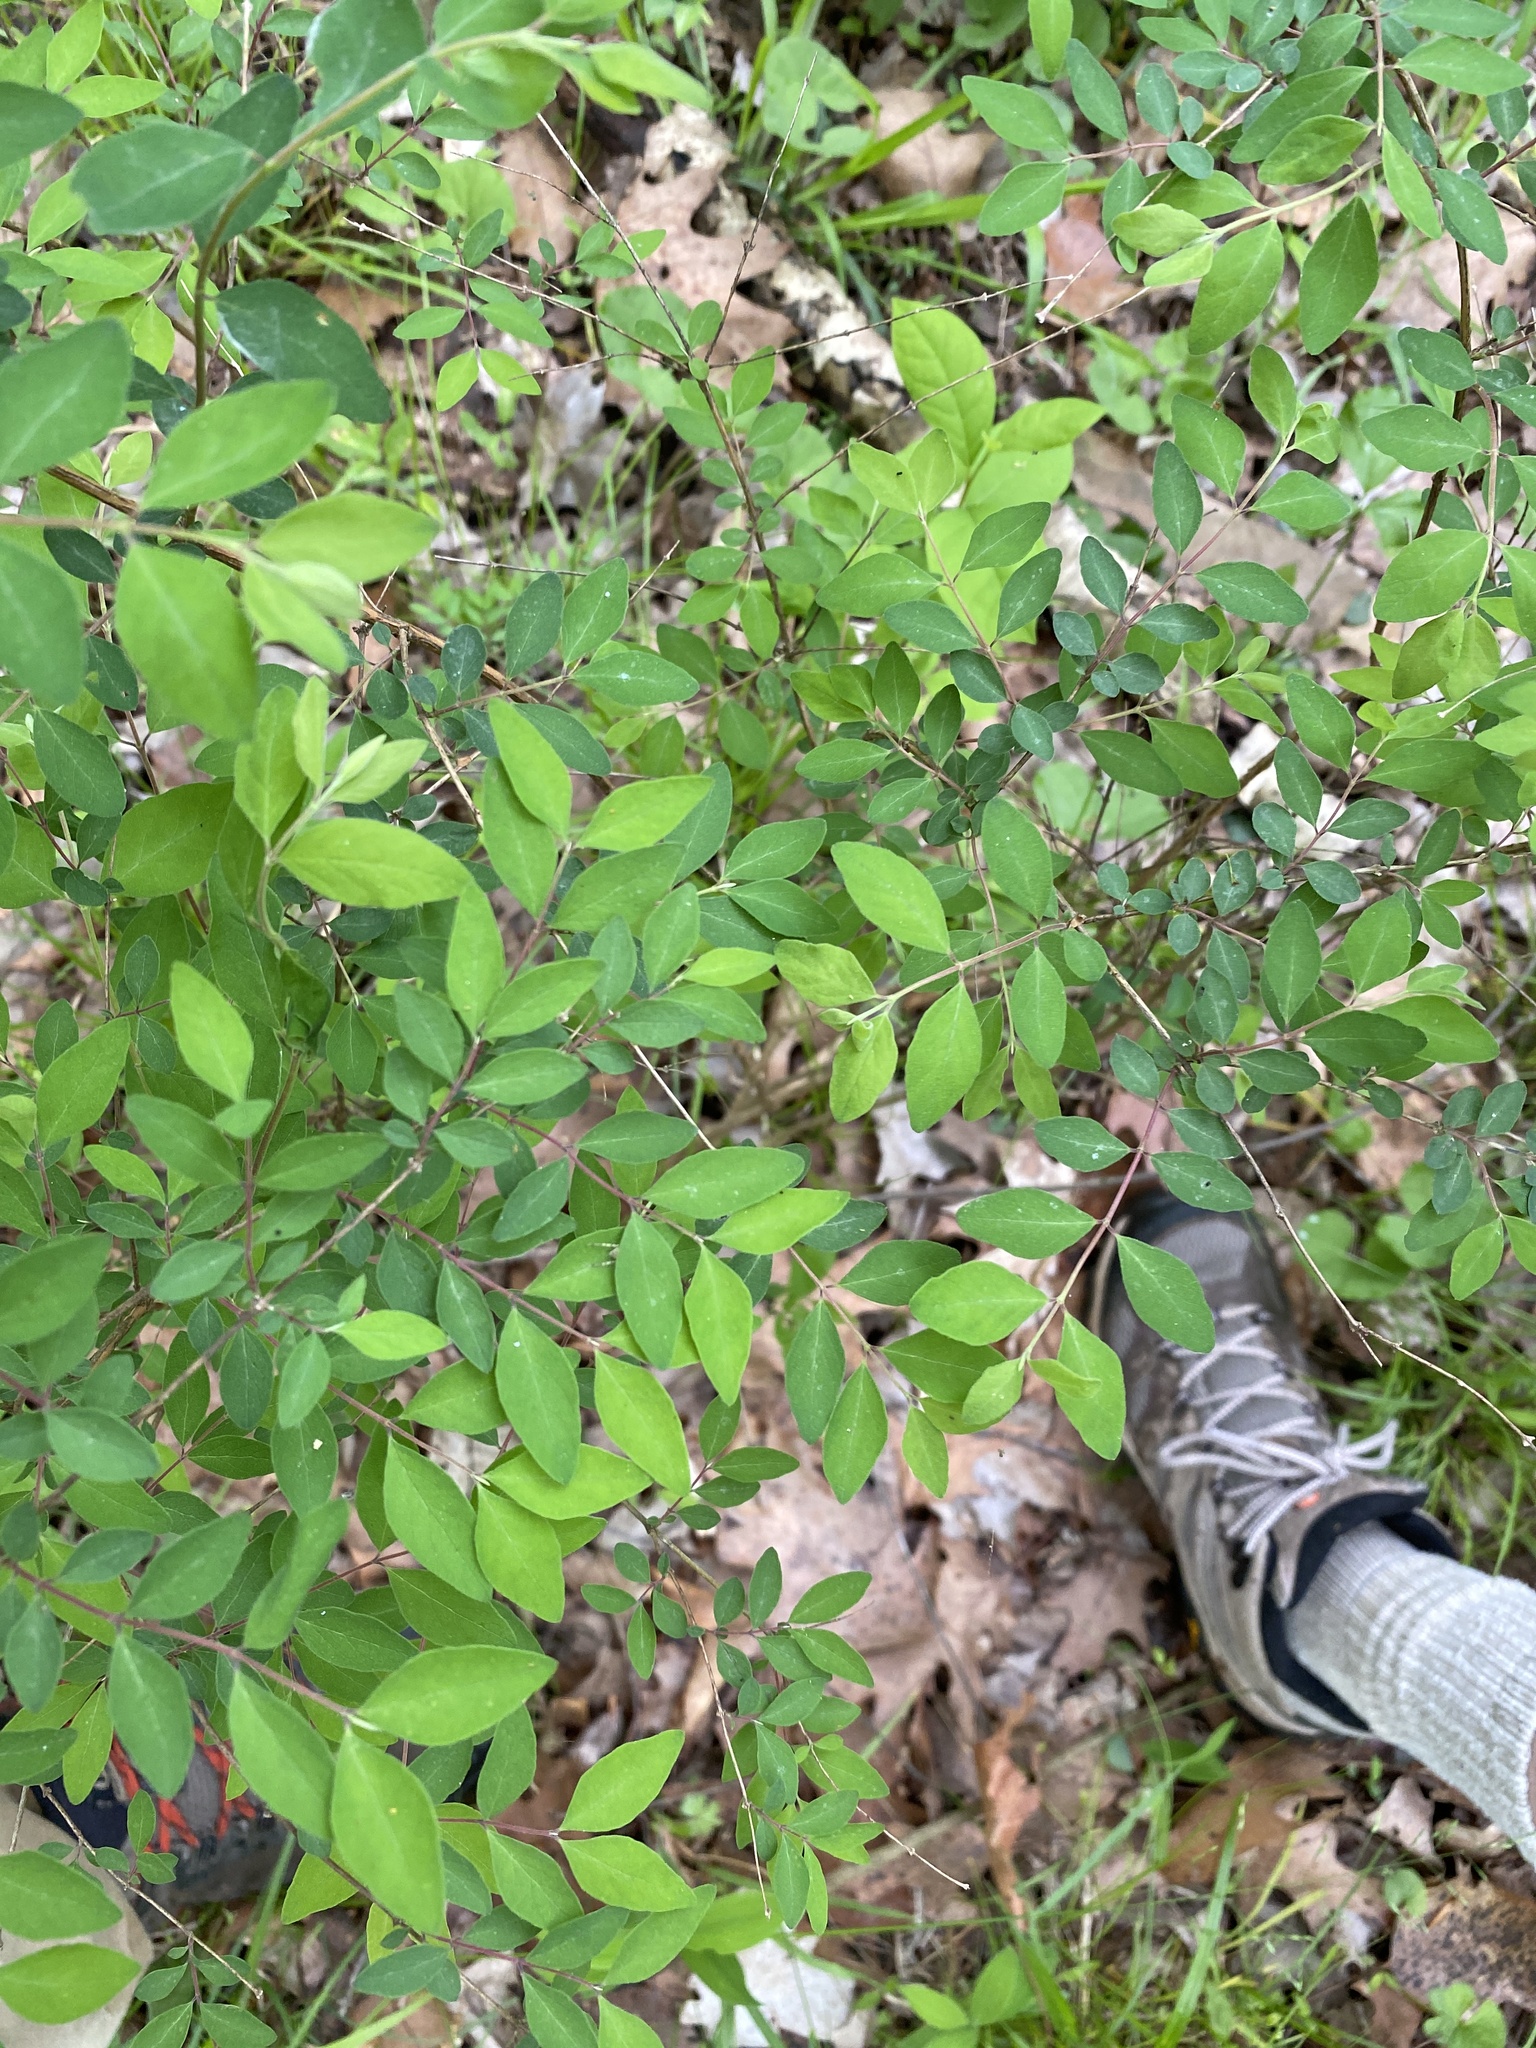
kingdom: Plantae
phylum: Tracheophyta
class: Magnoliopsida
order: Dipsacales
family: Caprifoliaceae
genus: Symphoricarpos
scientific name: Symphoricarpos orbiculatus
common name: Coralberry
